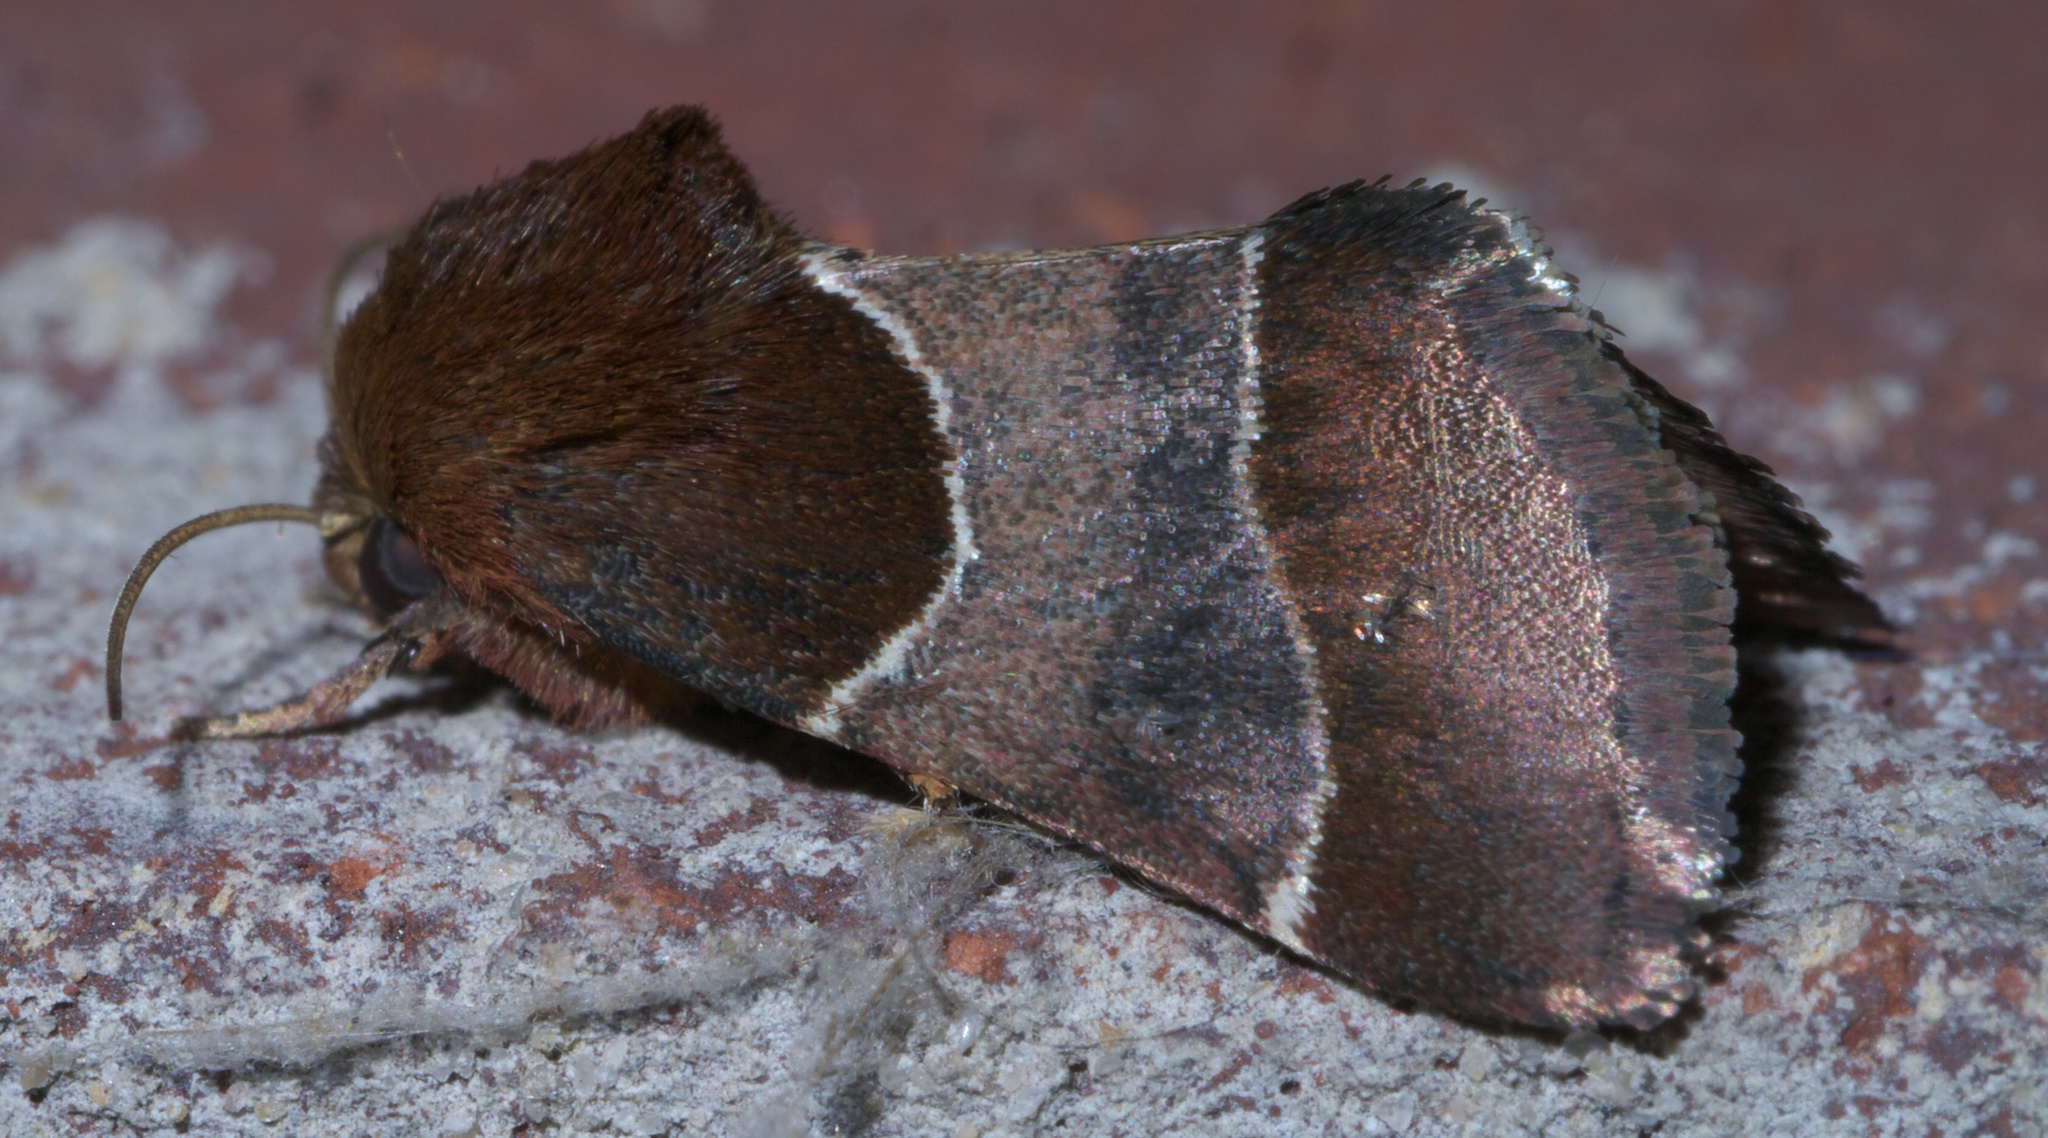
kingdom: Animalia
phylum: Arthropoda
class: Insecta
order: Lepidoptera
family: Noctuidae
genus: Schinia
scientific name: Schinia arcigera
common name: Arcigera flower moth
